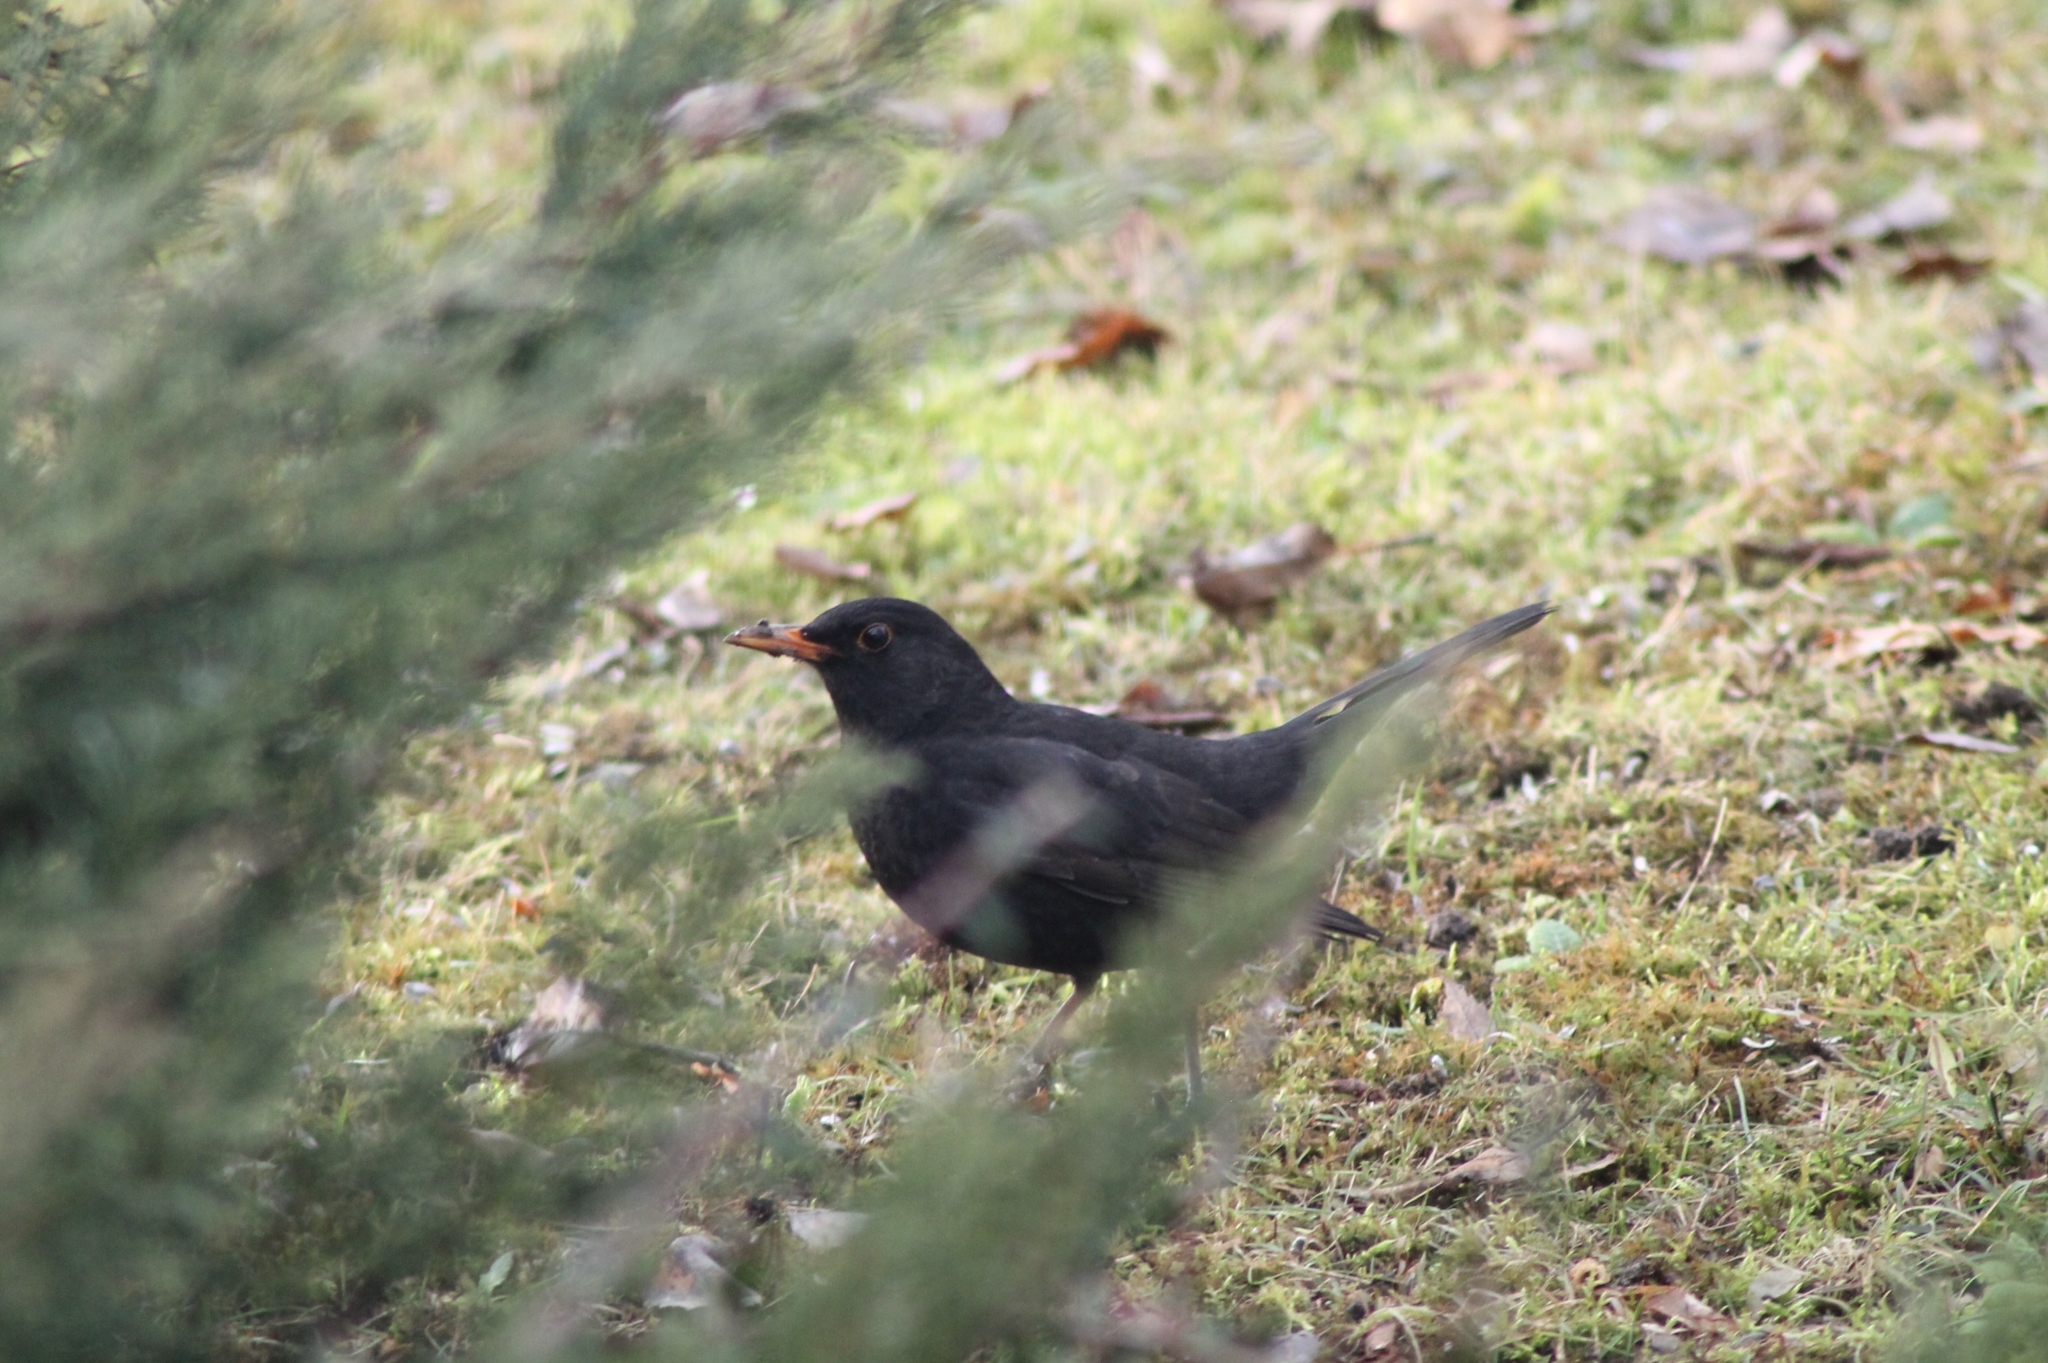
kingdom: Animalia
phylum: Chordata
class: Aves
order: Passeriformes
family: Turdidae
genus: Turdus
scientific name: Turdus merula
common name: Common blackbird
